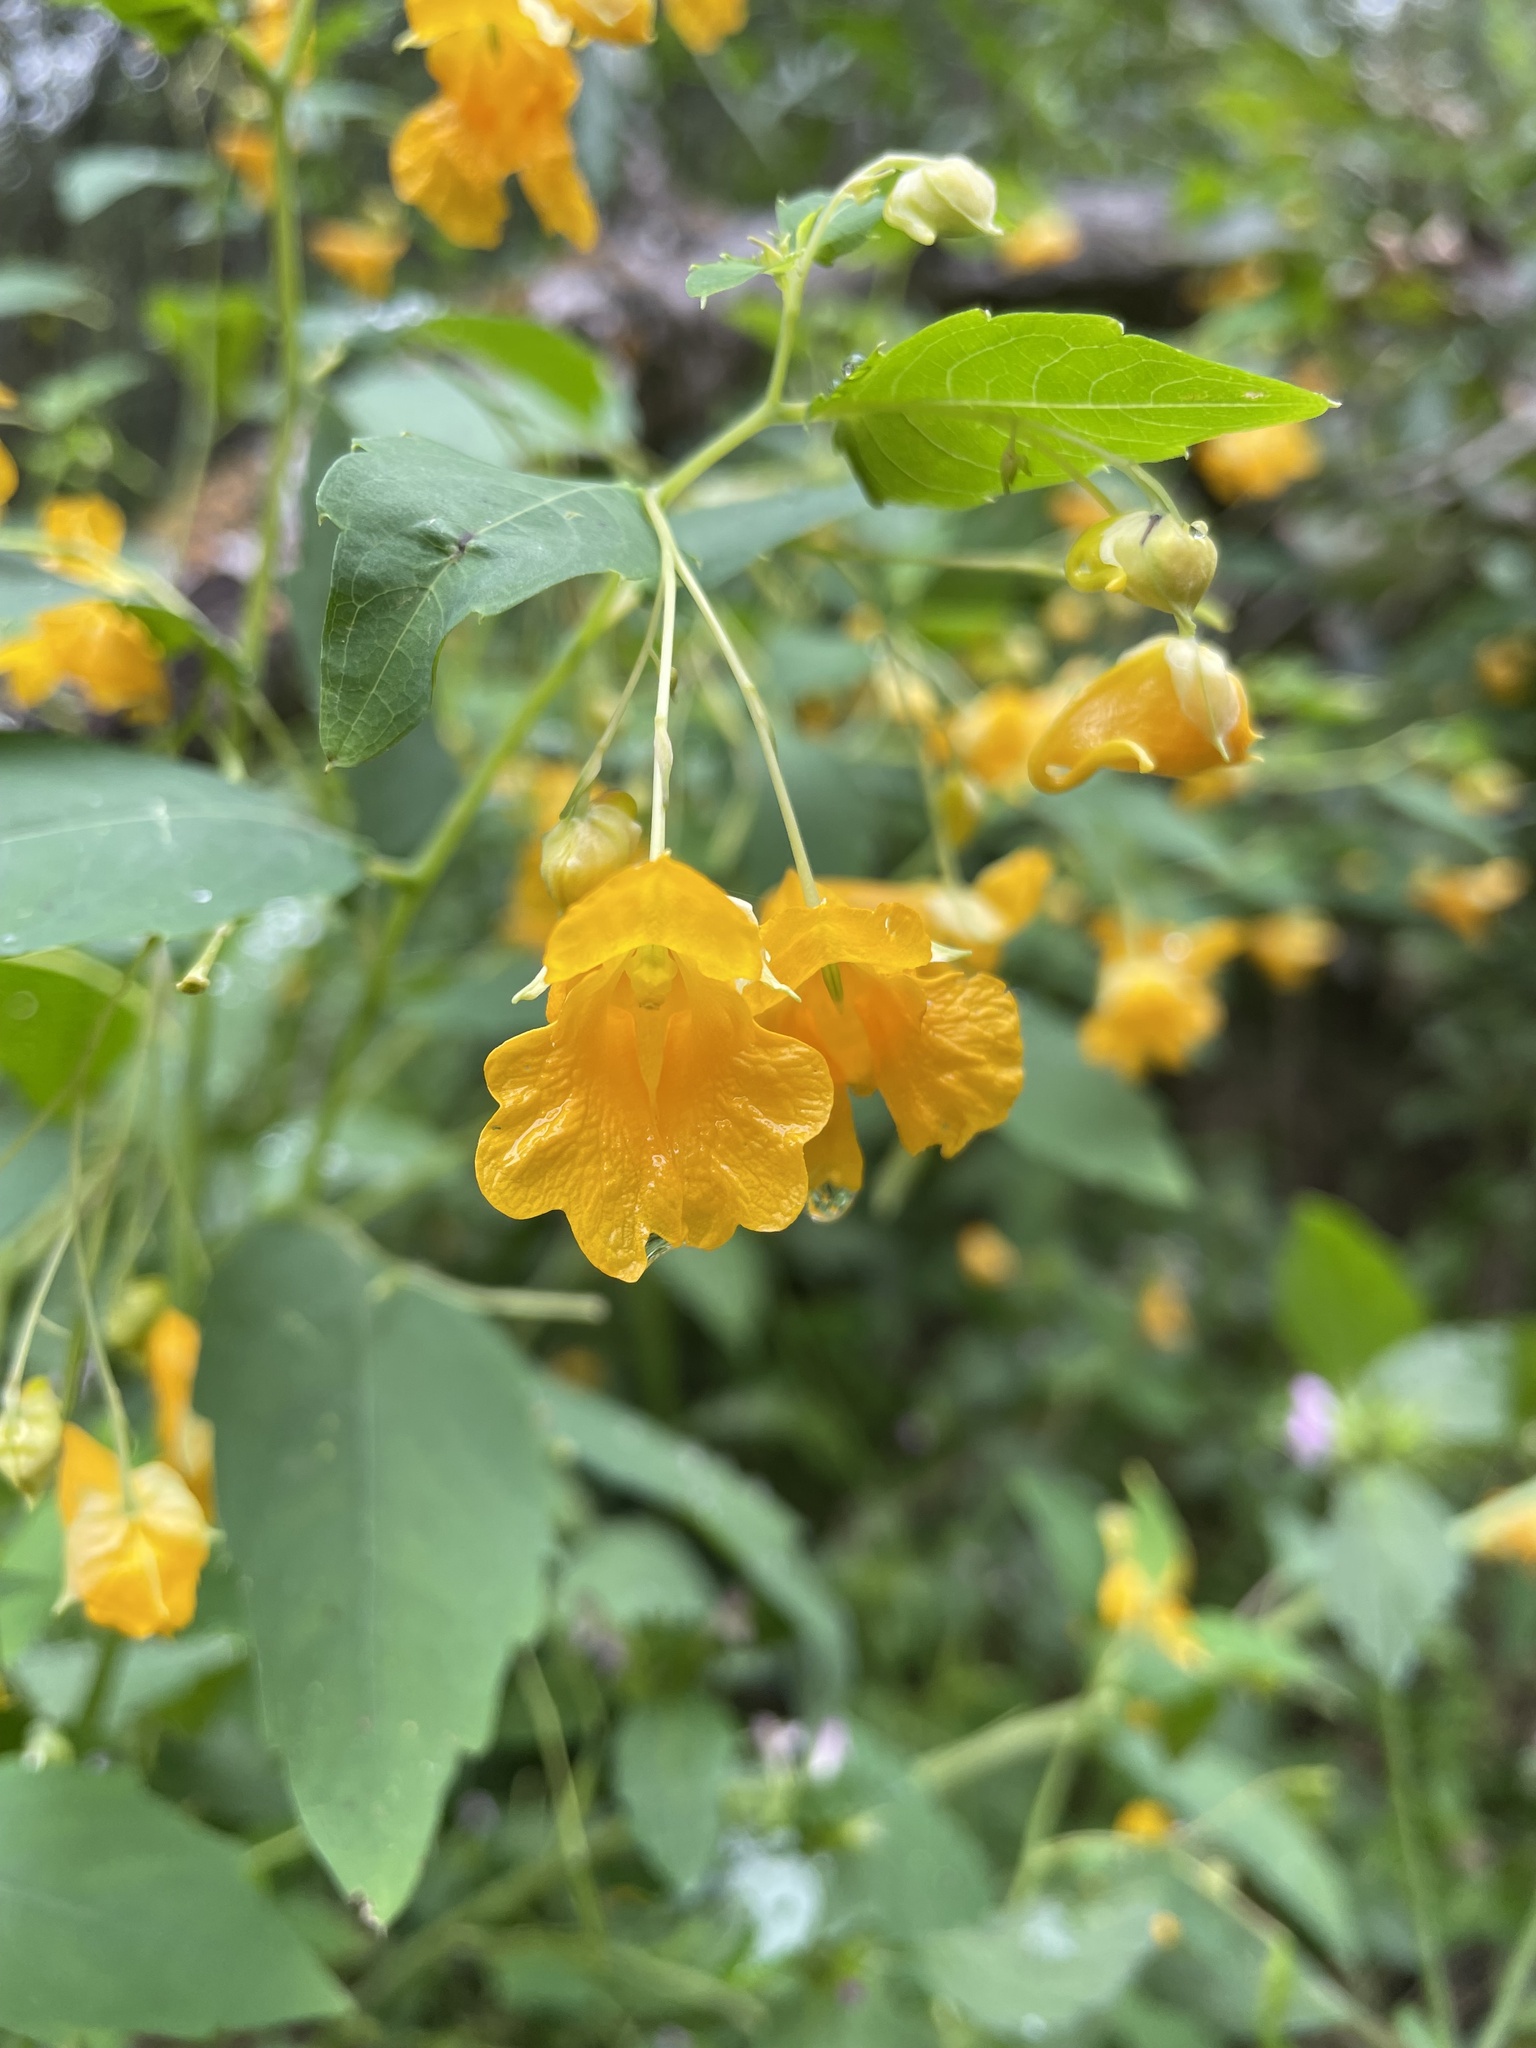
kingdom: Plantae
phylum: Tracheophyta
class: Magnoliopsida
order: Ericales
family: Balsaminaceae
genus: Impatiens
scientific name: Impatiens capensis
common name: Orange balsam
